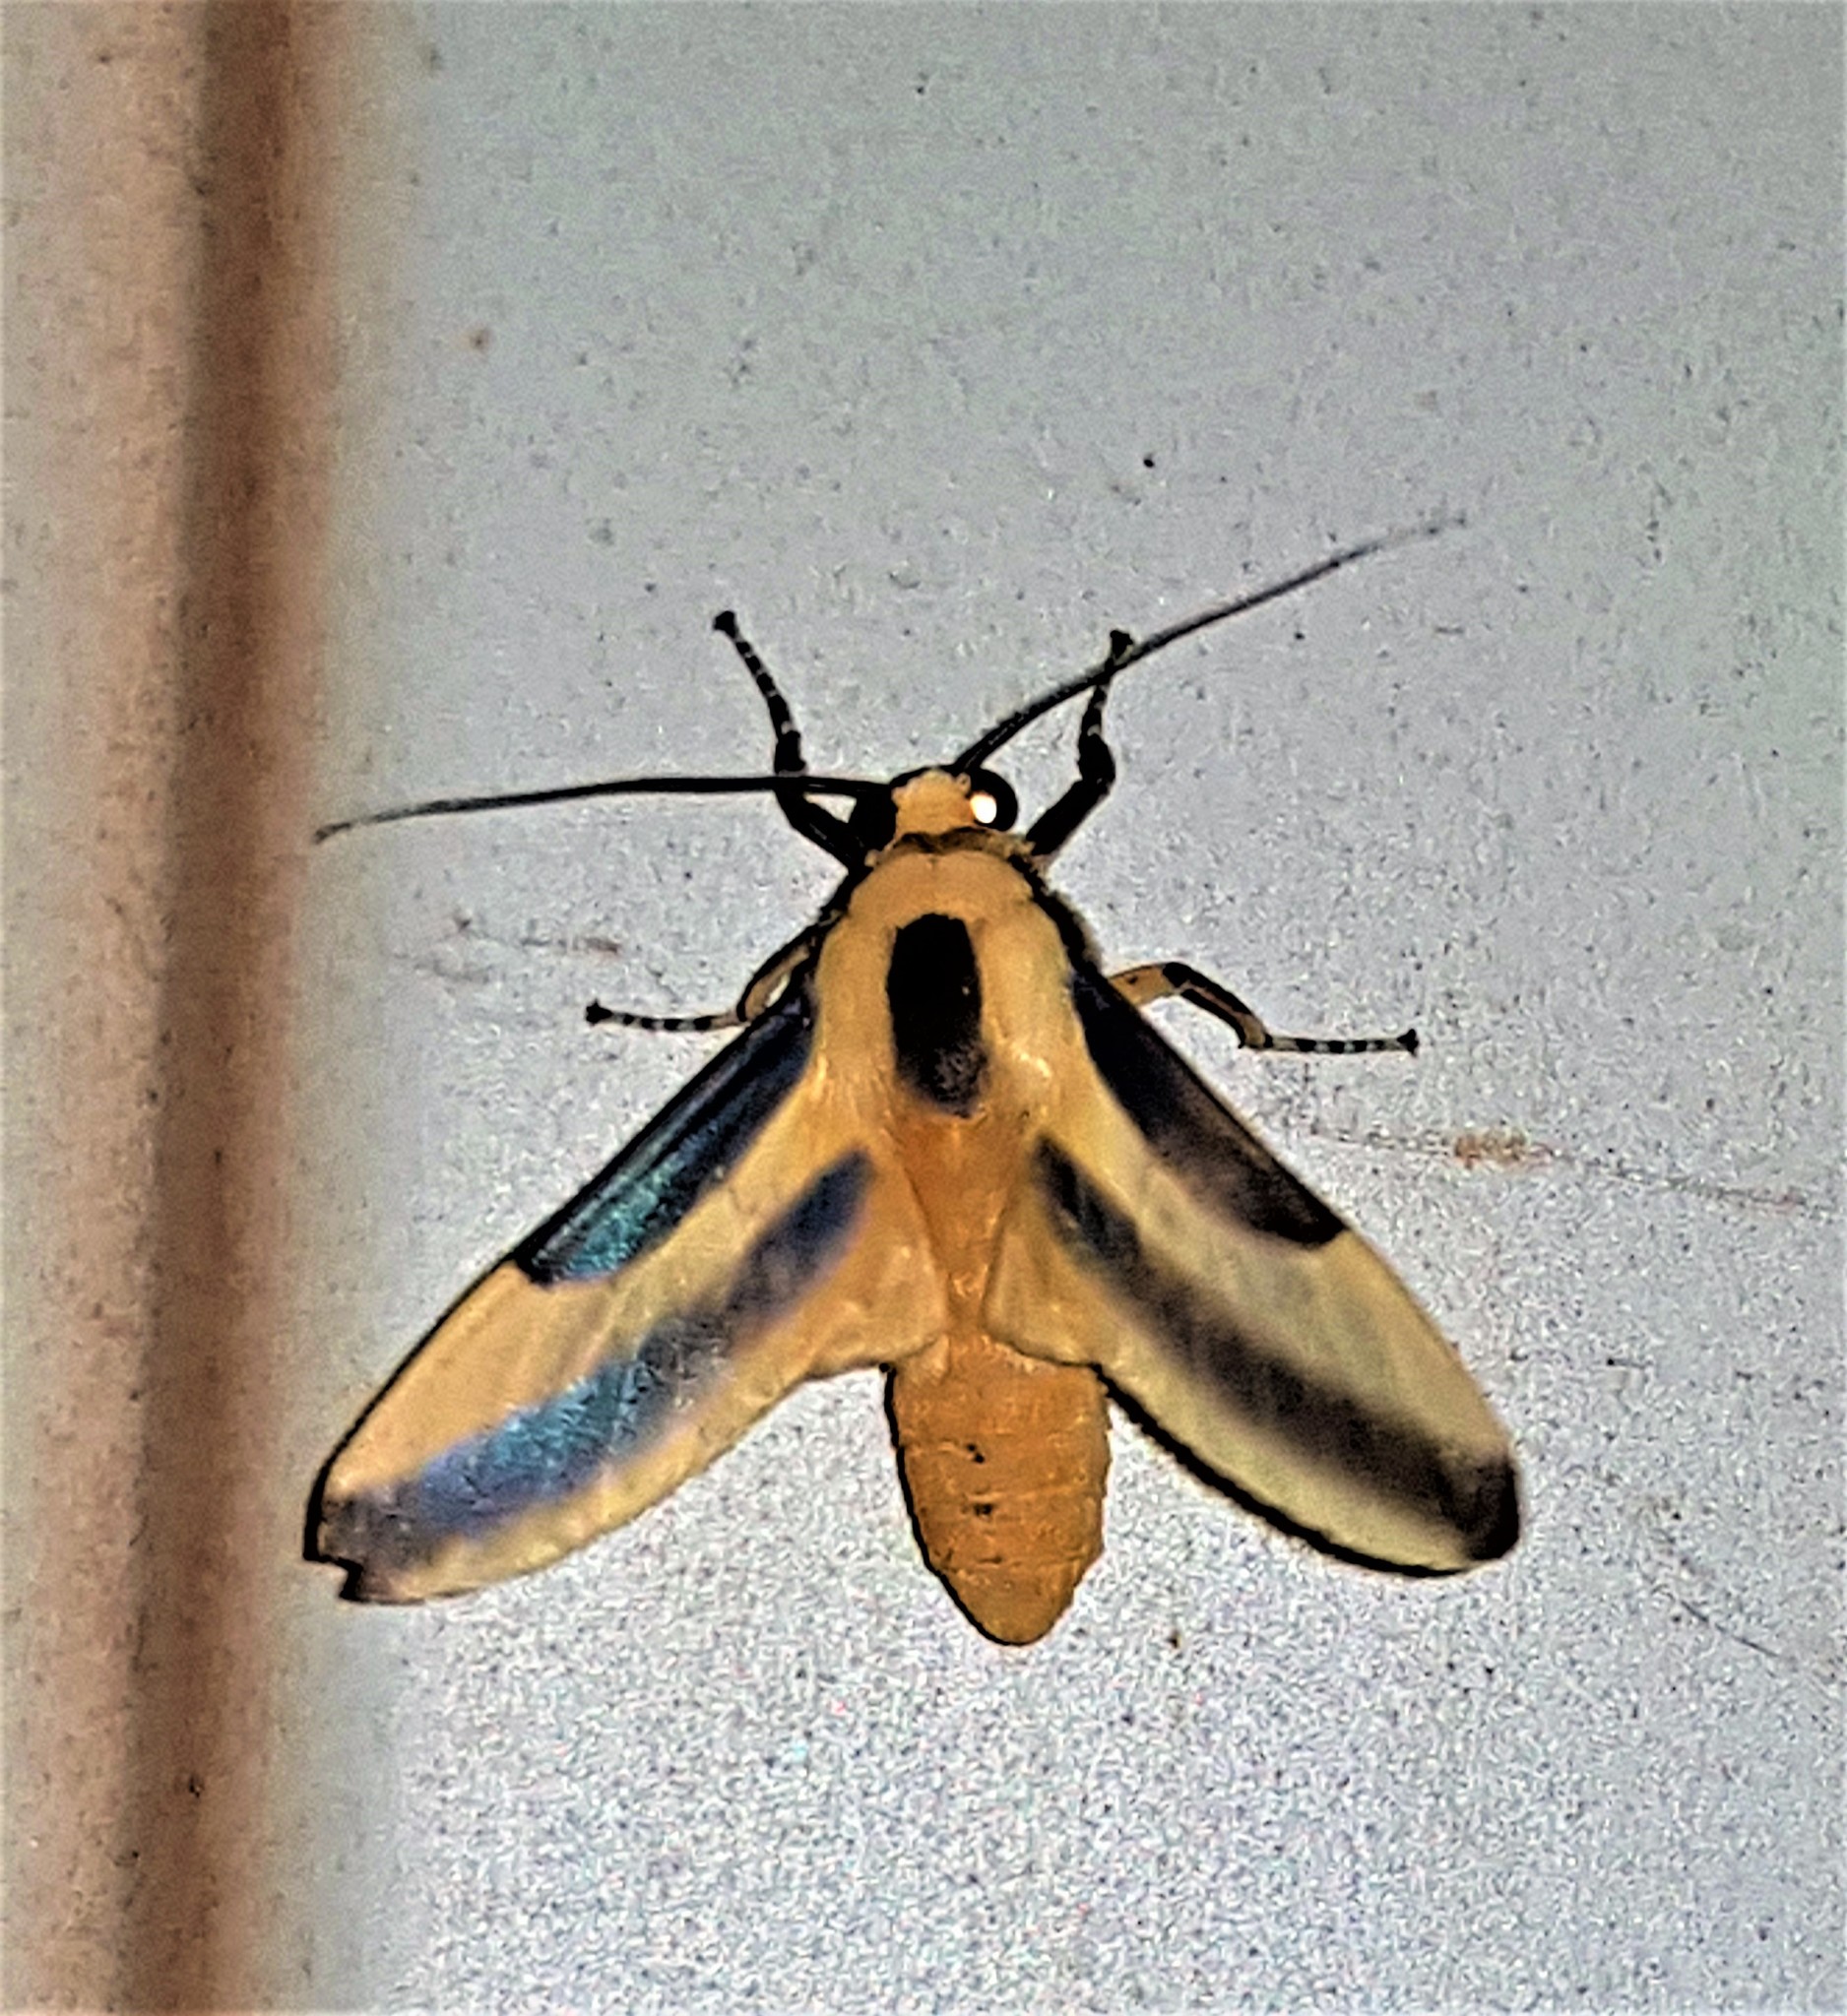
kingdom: Animalia
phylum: Arthropoda
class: Insecta
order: Lepidoptera
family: Erebidae
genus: Sutonocrea
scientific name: Sutonocrea reducta
